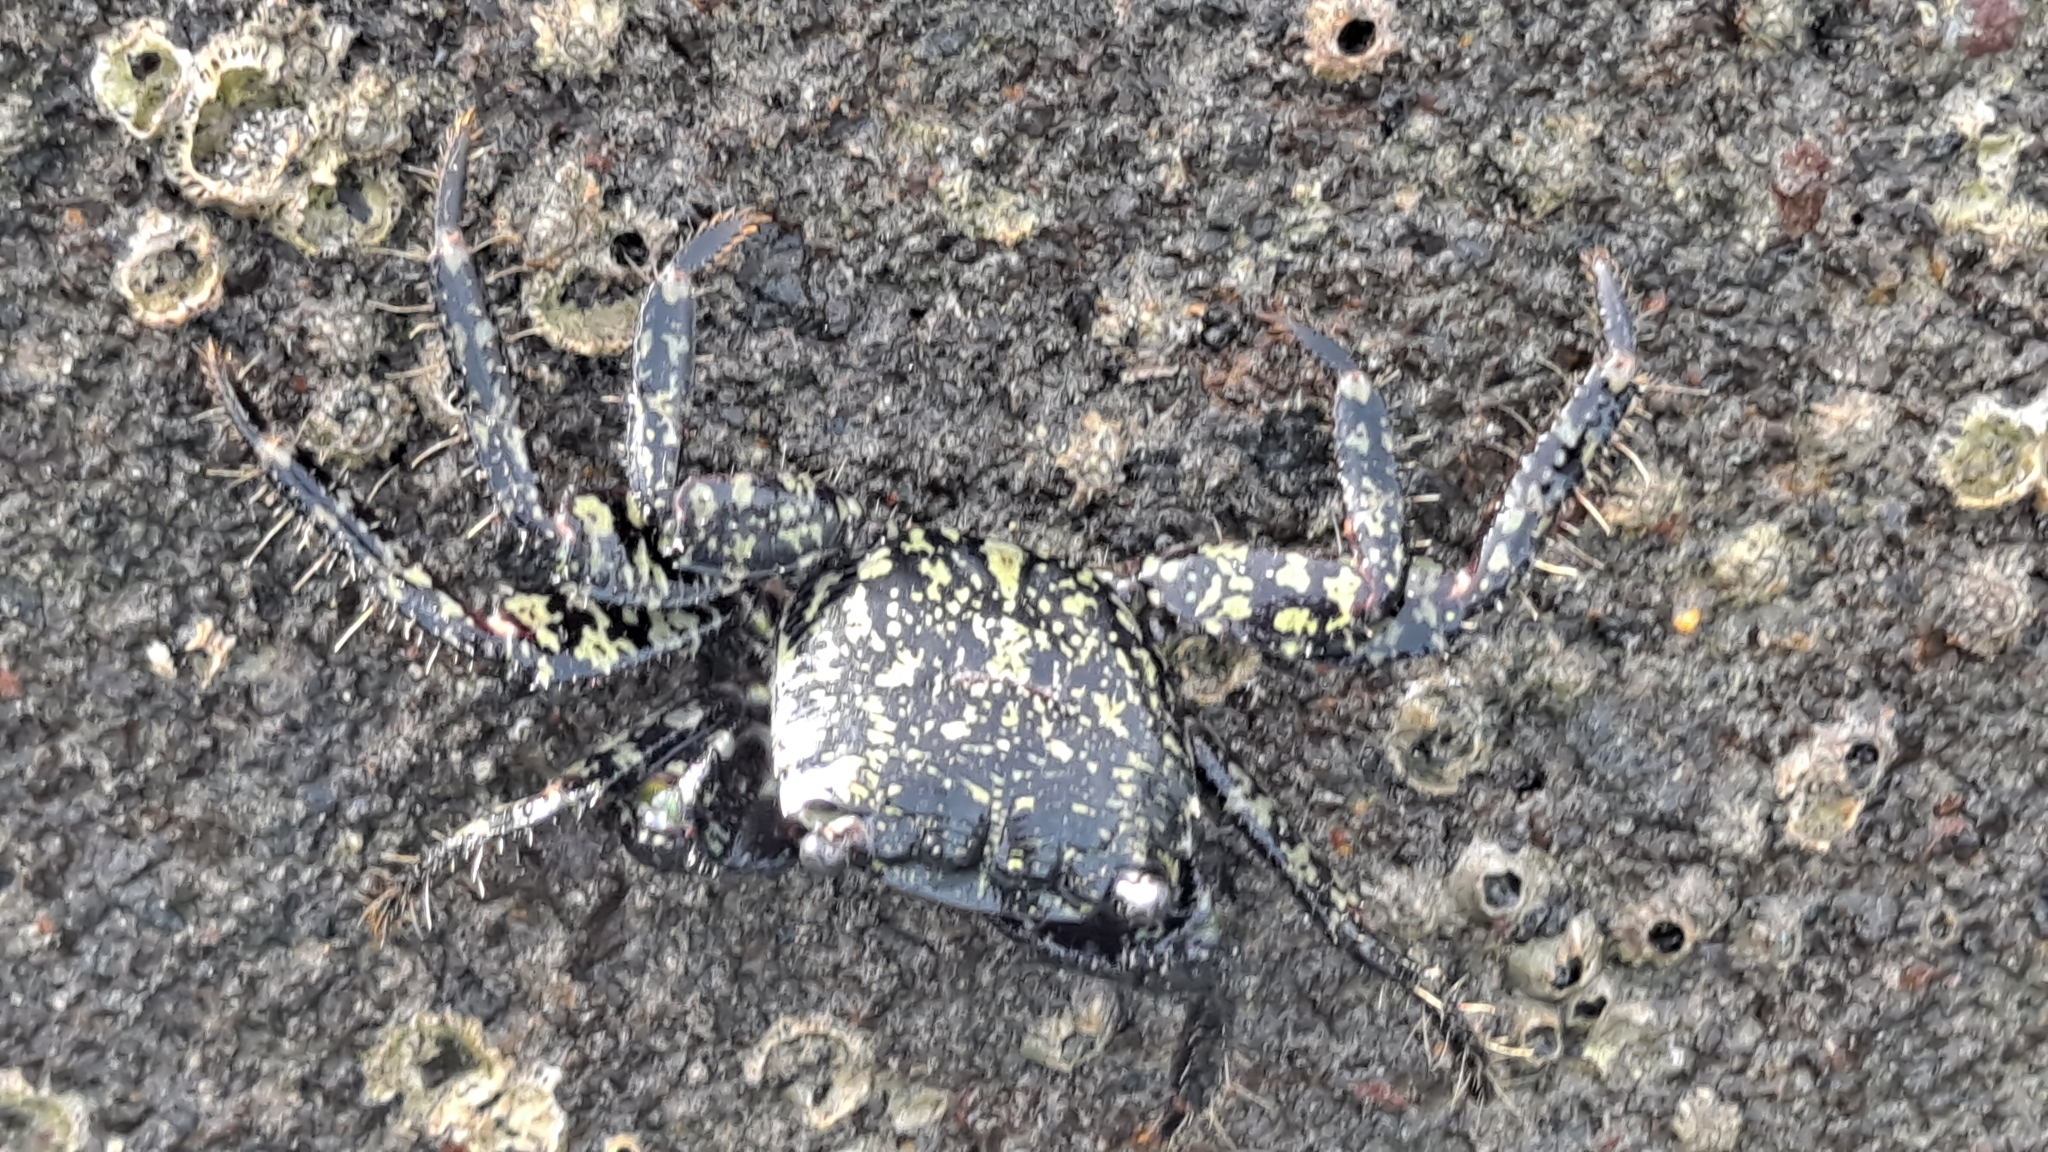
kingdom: Animalia
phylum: Arthropoda
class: Malacostraca
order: Decapoda
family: Grapsidae
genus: Pachygrapsus
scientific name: Pachygrapsus marmoratus
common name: Marbled rock crab
